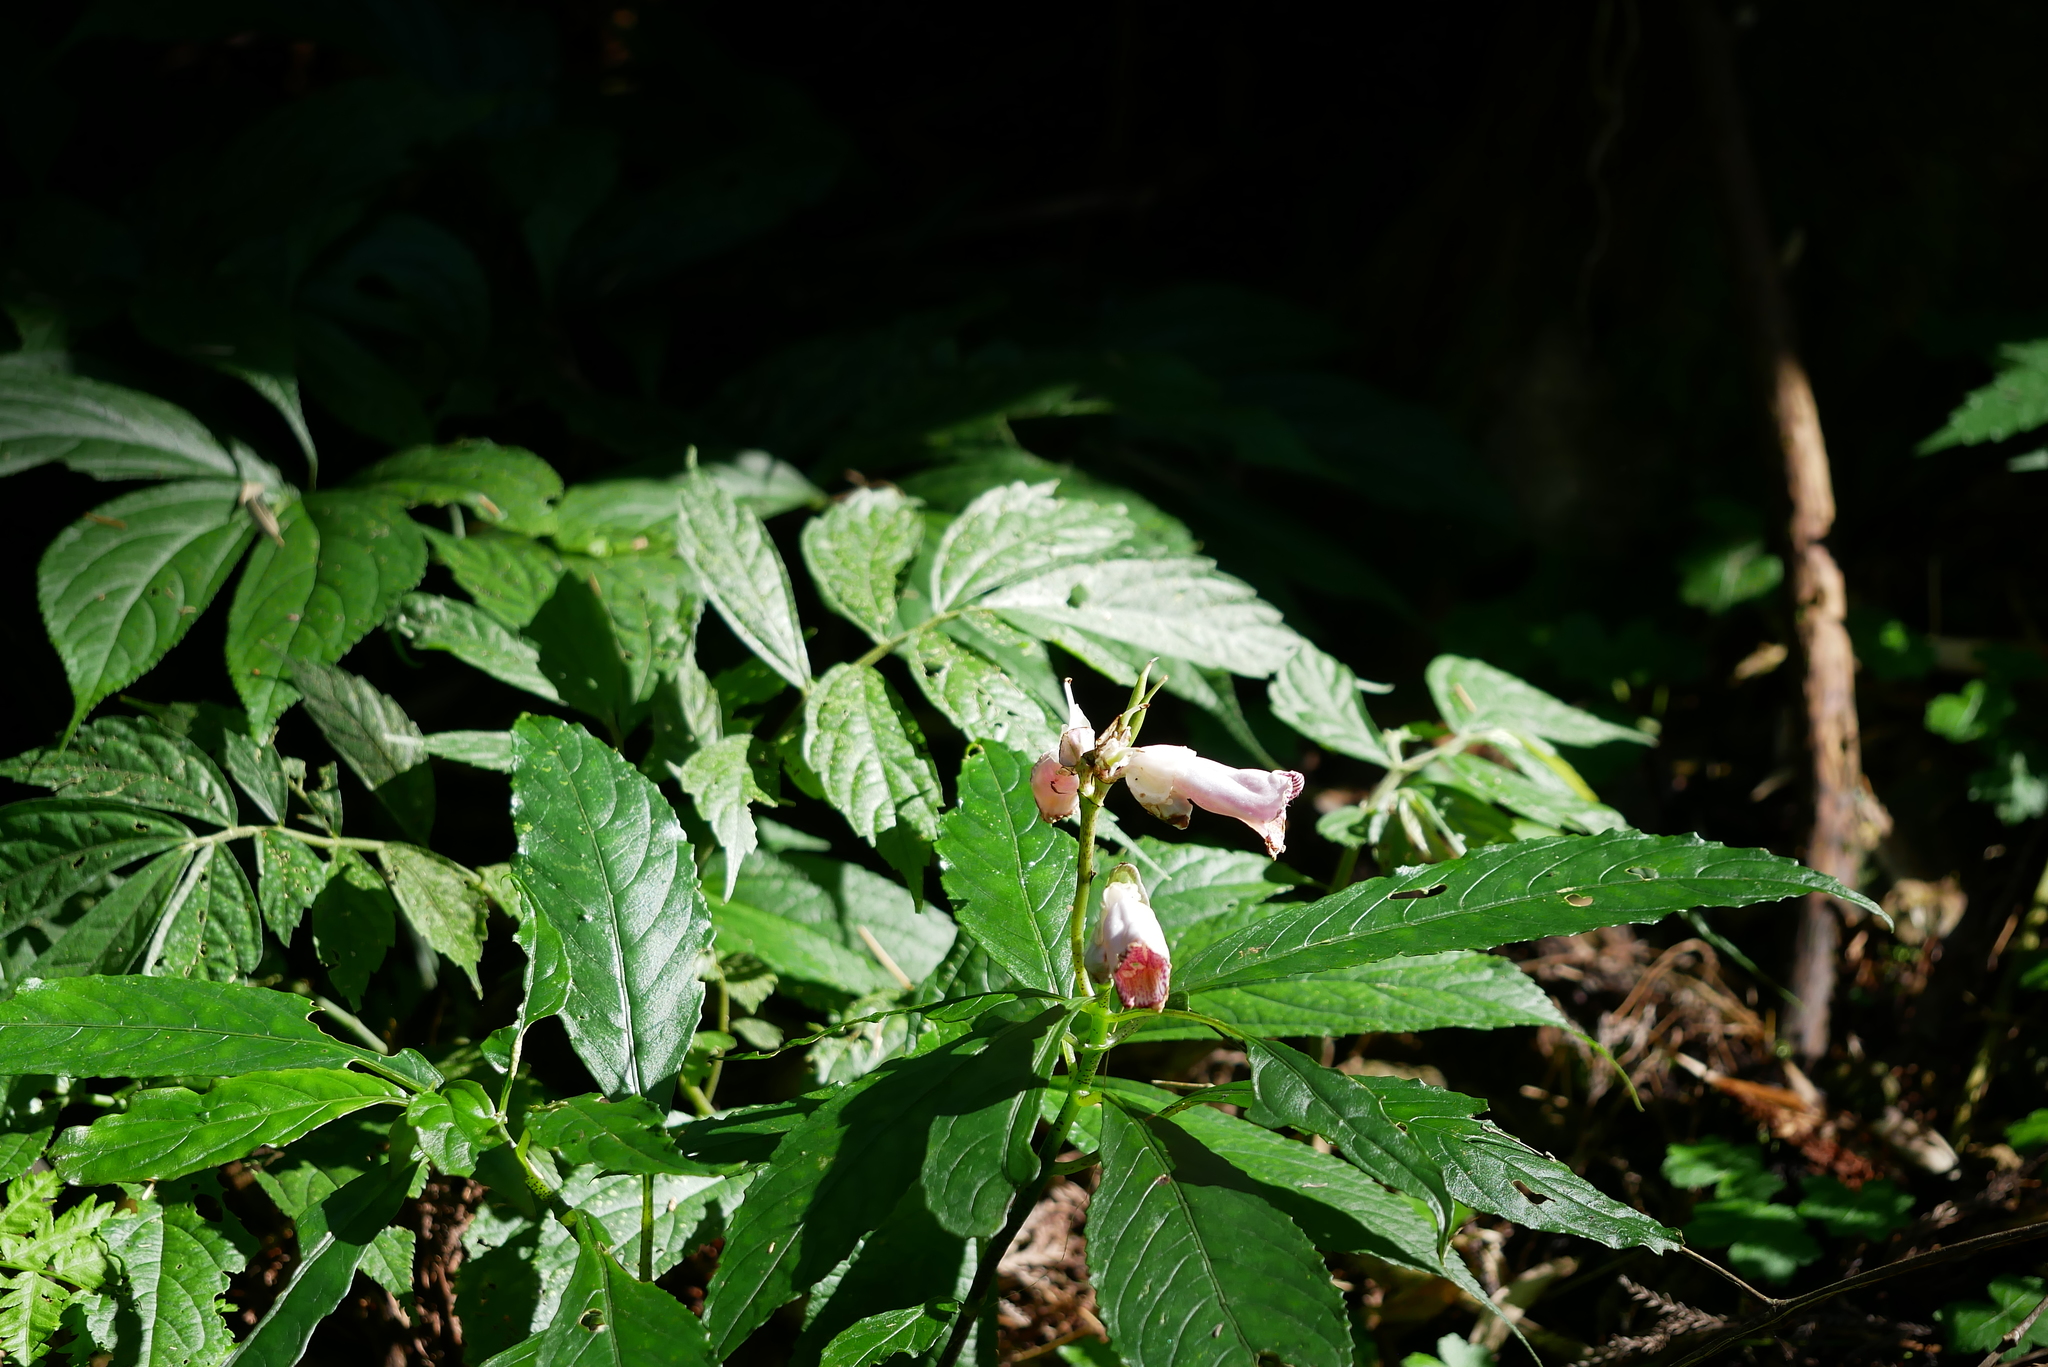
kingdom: Plantae
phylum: Tracheophyta
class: Magnoliopsida
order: Lamiales
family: Gesneriaceae
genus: Hemiboea
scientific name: Hemiboea bicornuta
